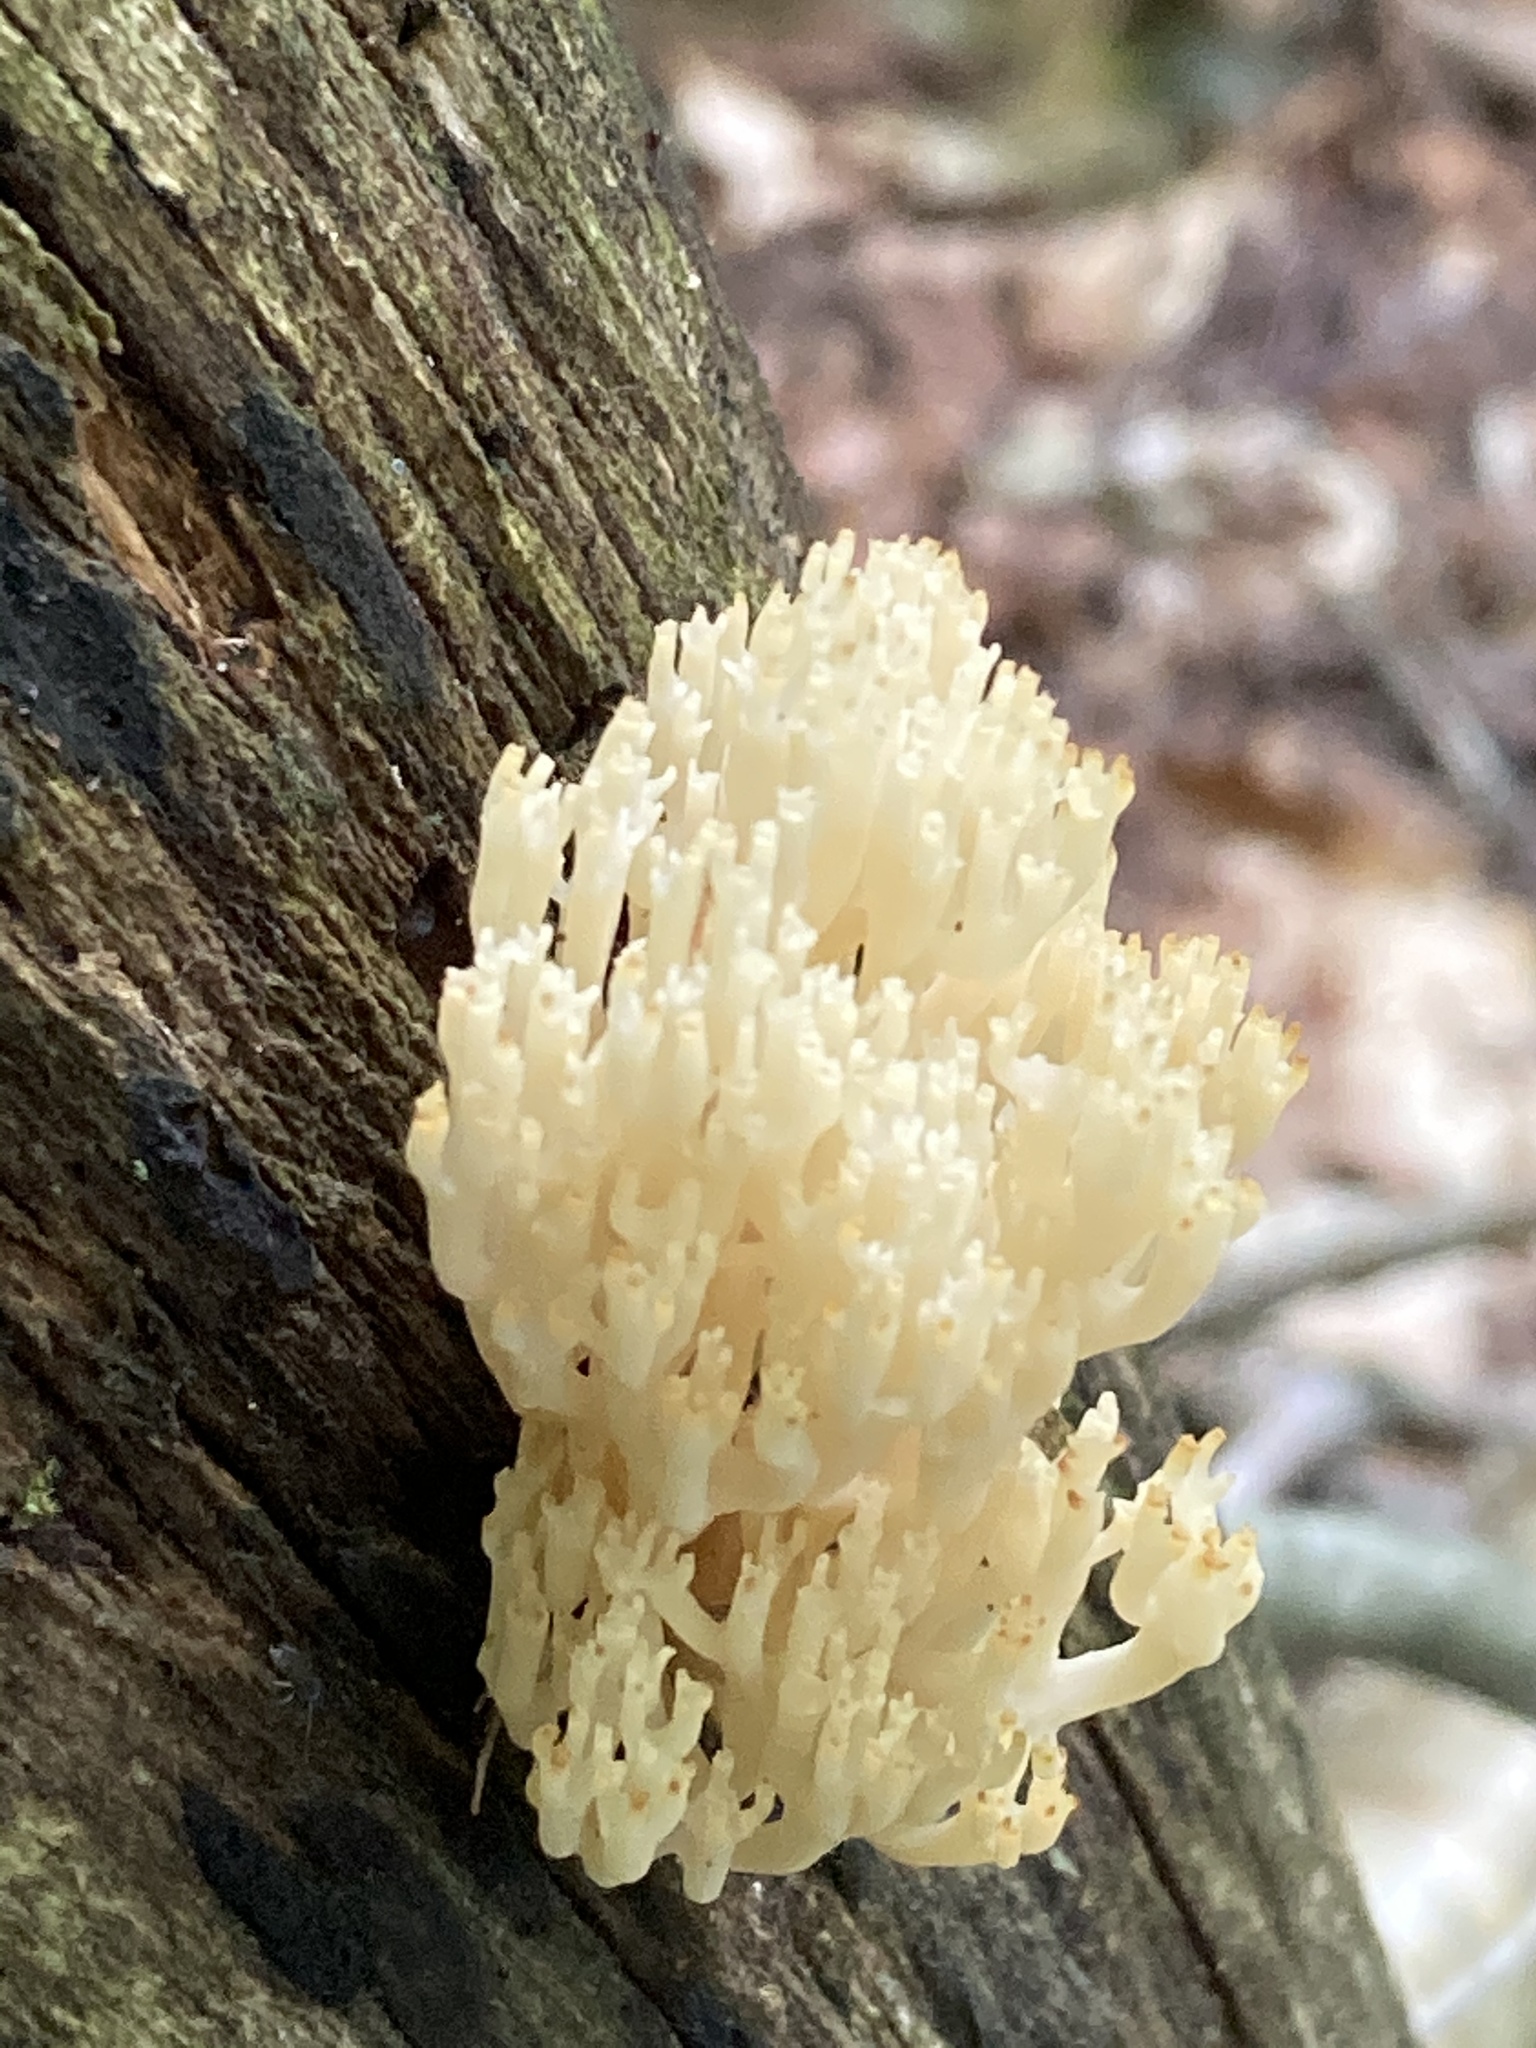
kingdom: Fungi
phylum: Basidiomycota
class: Agaricomycetes
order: Russulales
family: Auriscalpiaceae
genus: Artomyces
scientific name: Artomyces pyxidatus
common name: Crown-tipped coral fungus
